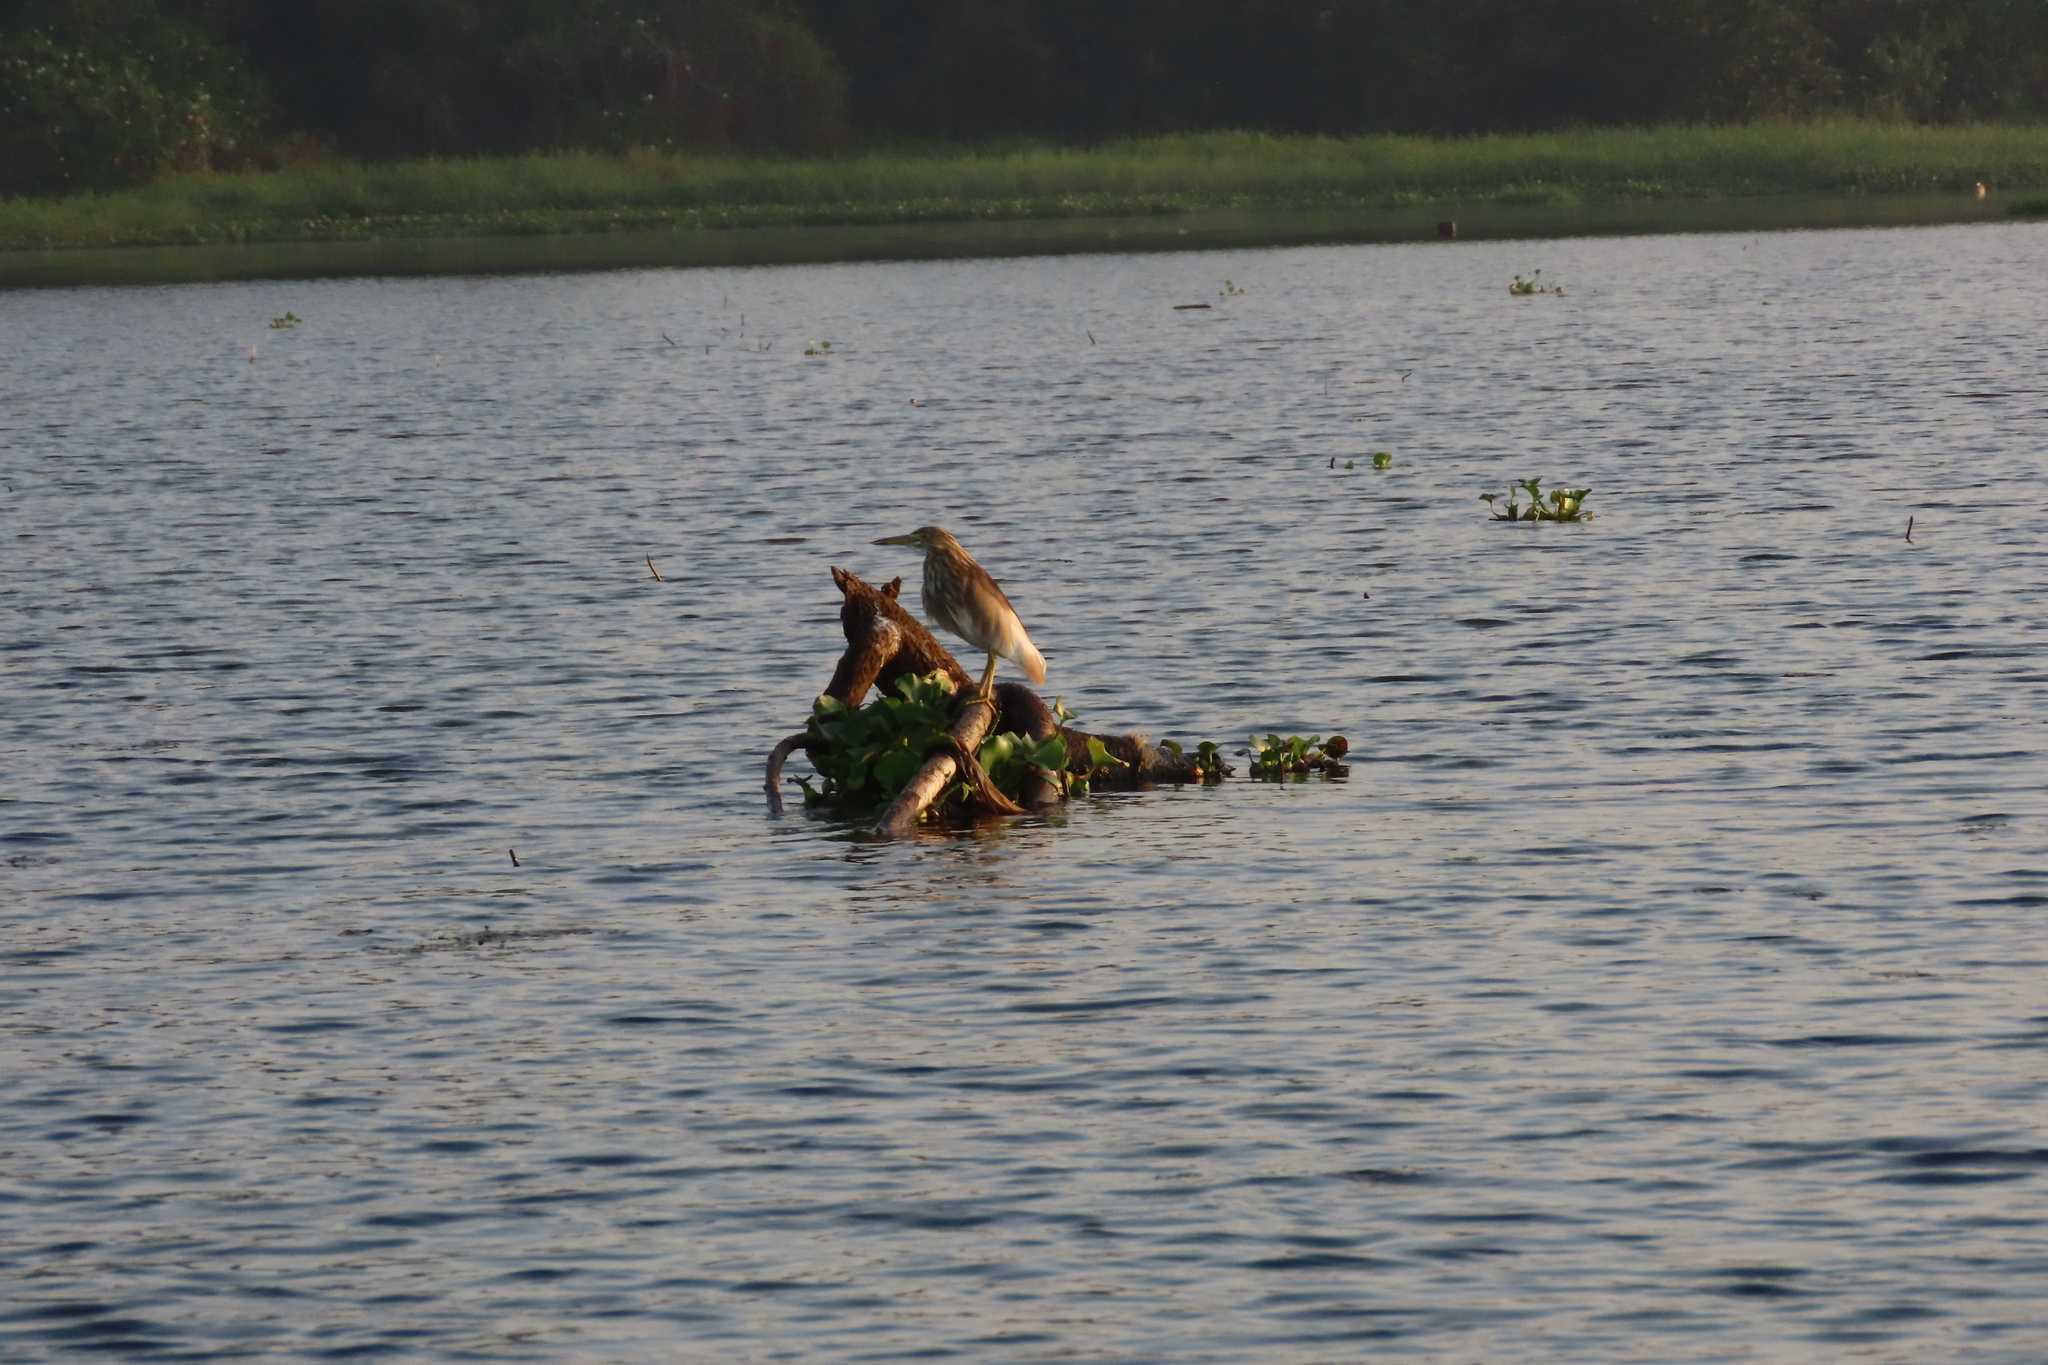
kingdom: Animalia
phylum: Chordata
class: Aves
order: Pelecaniformes
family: Ardeidae
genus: Ardeola
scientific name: Ardeola grayii
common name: Indian pond heron
